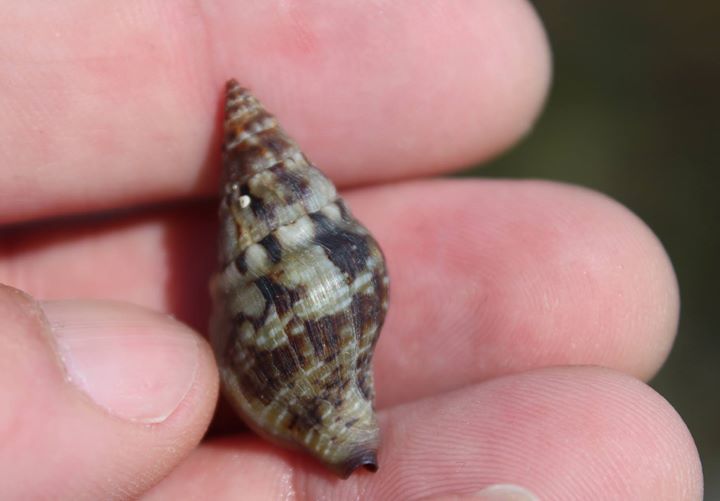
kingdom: Animalia
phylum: Mollusca
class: Gastropoda
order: Neogastropoda
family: Tudiclidae
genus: Euthria
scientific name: Euthria cornea
